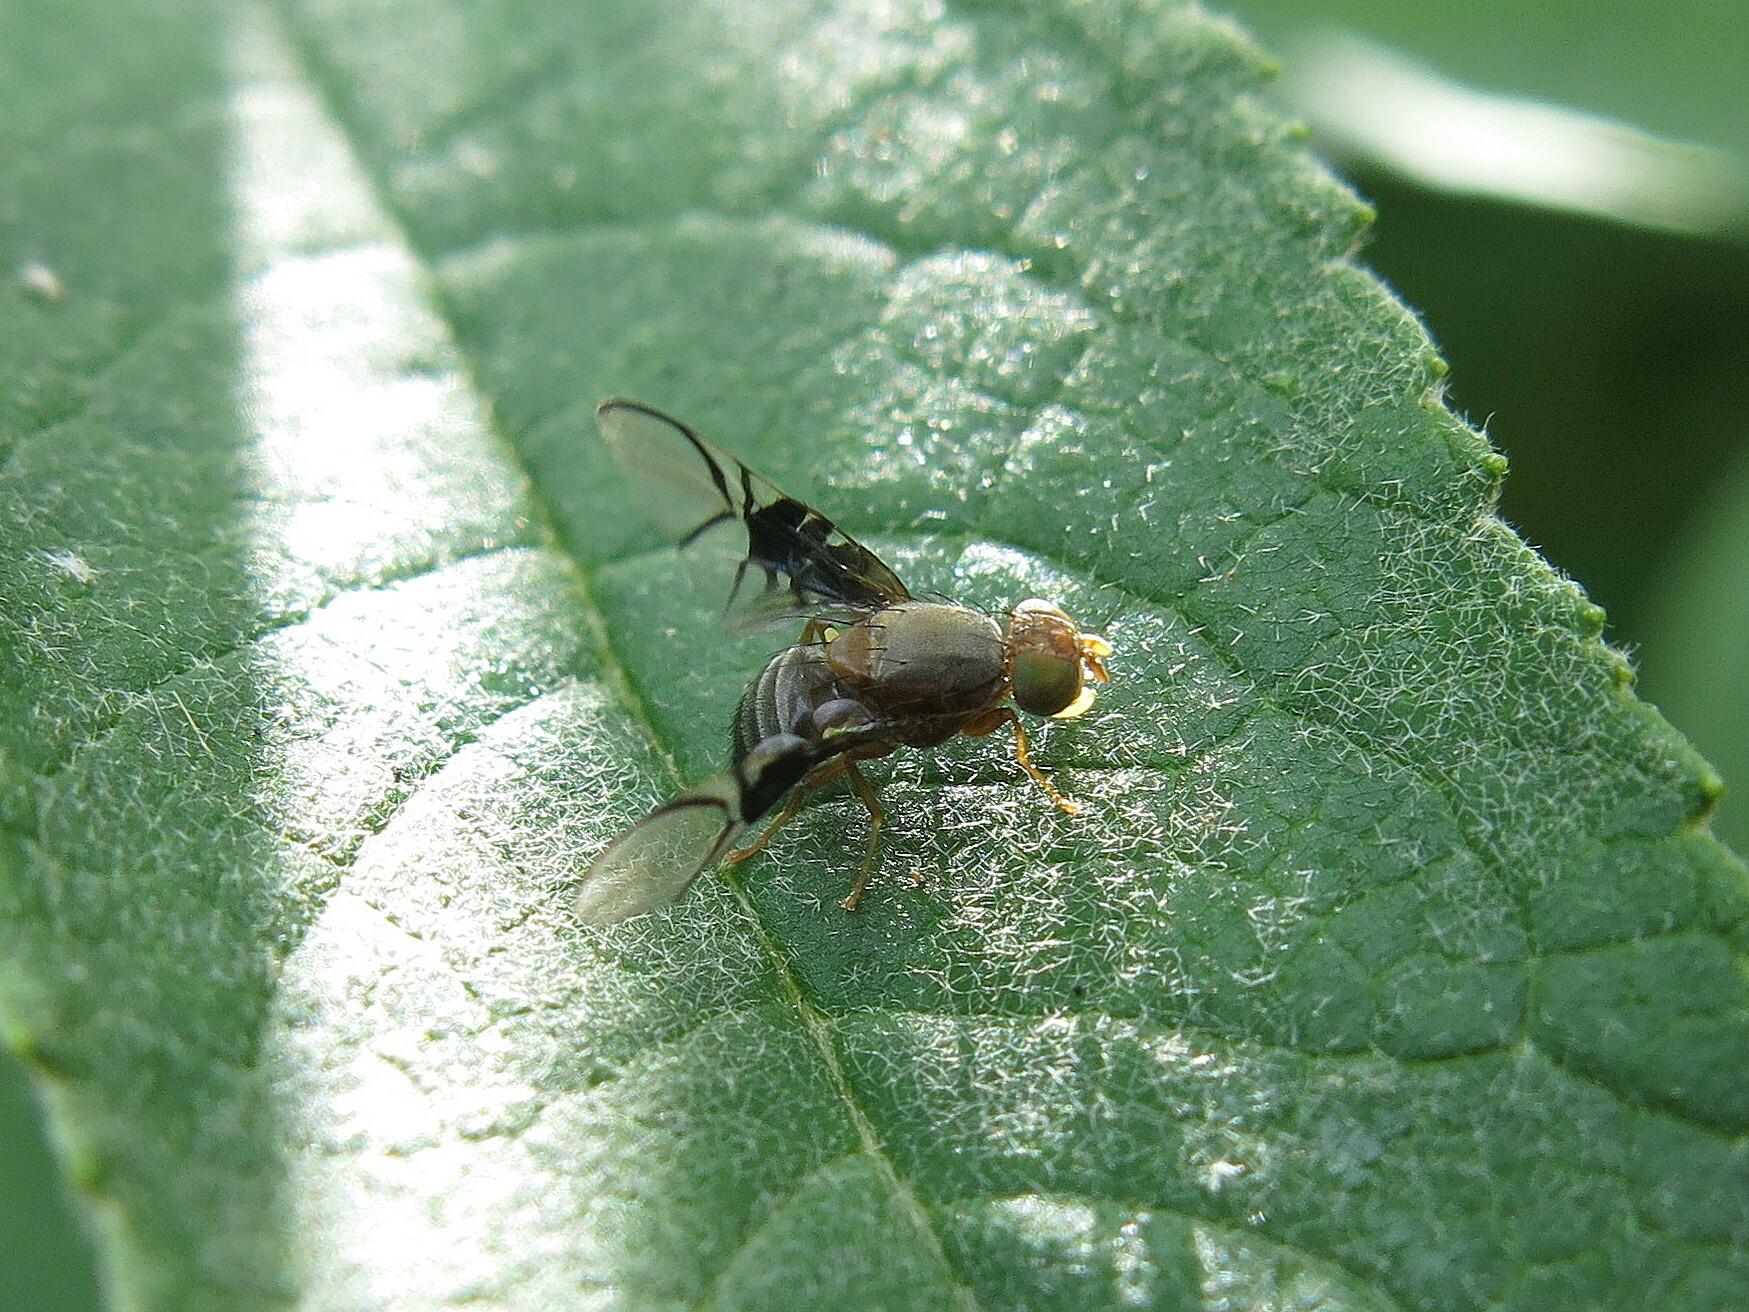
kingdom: Animalia
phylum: Arthropoda
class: Insecta
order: Diptera
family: Tephritidae
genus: Anomoia
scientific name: Anomoia purmunda
